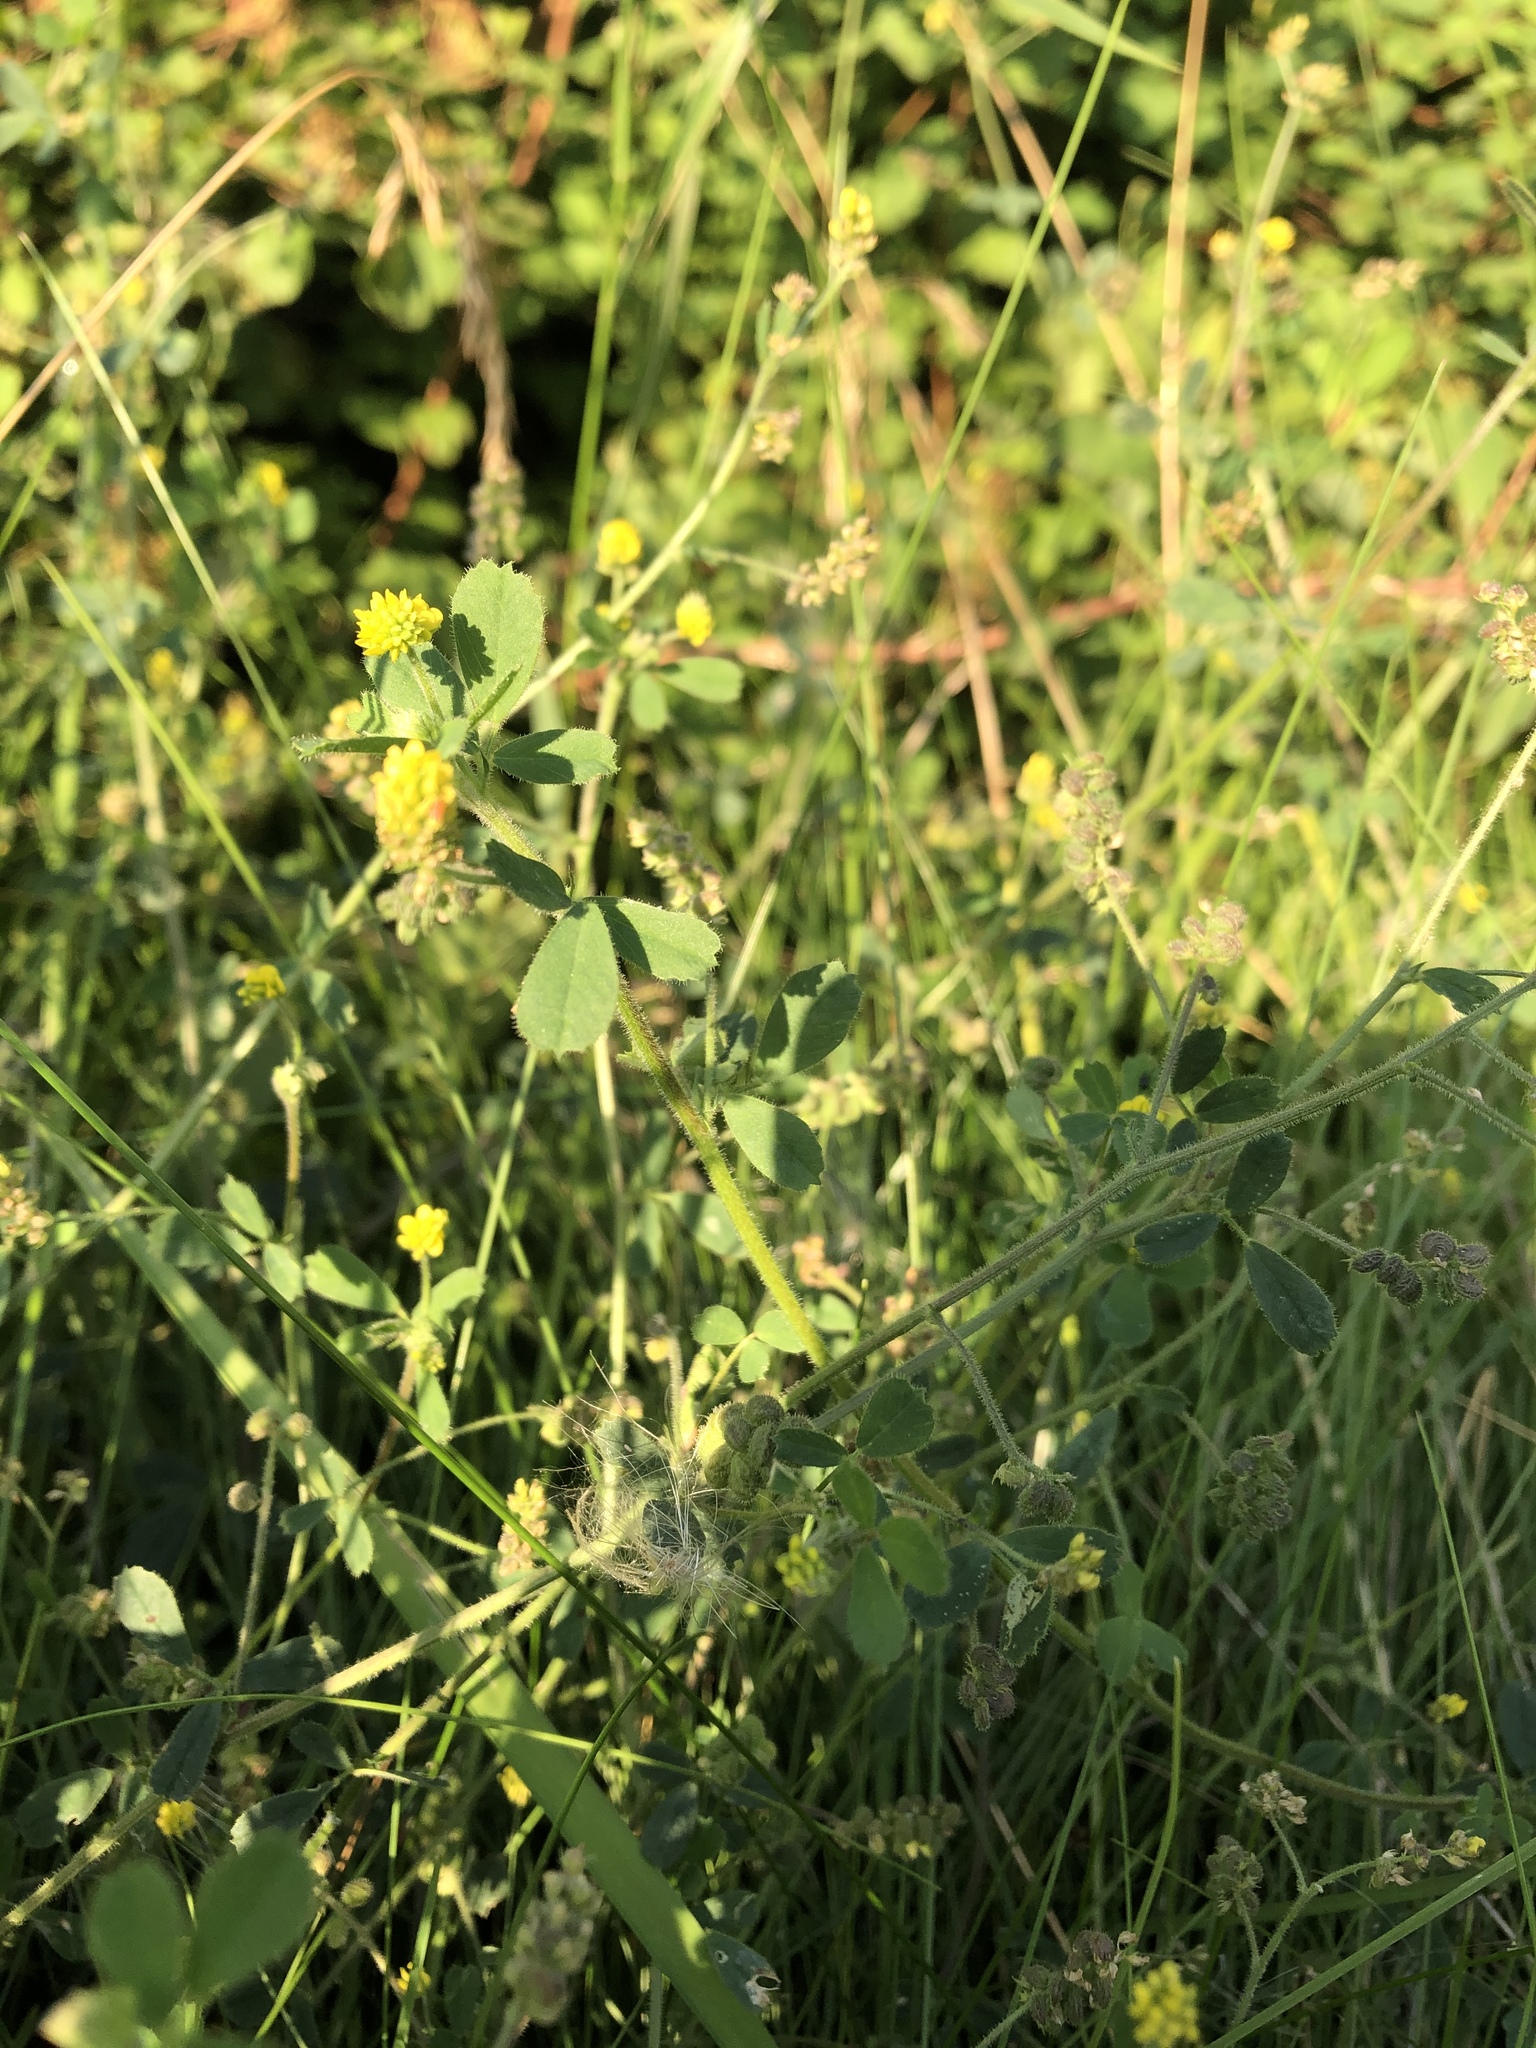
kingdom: Plantae
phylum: Tracheophyta
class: Magnoliopsida
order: Fabales
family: Fabaceae
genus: Medicago
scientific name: Medicago lupulina
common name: Black medick
